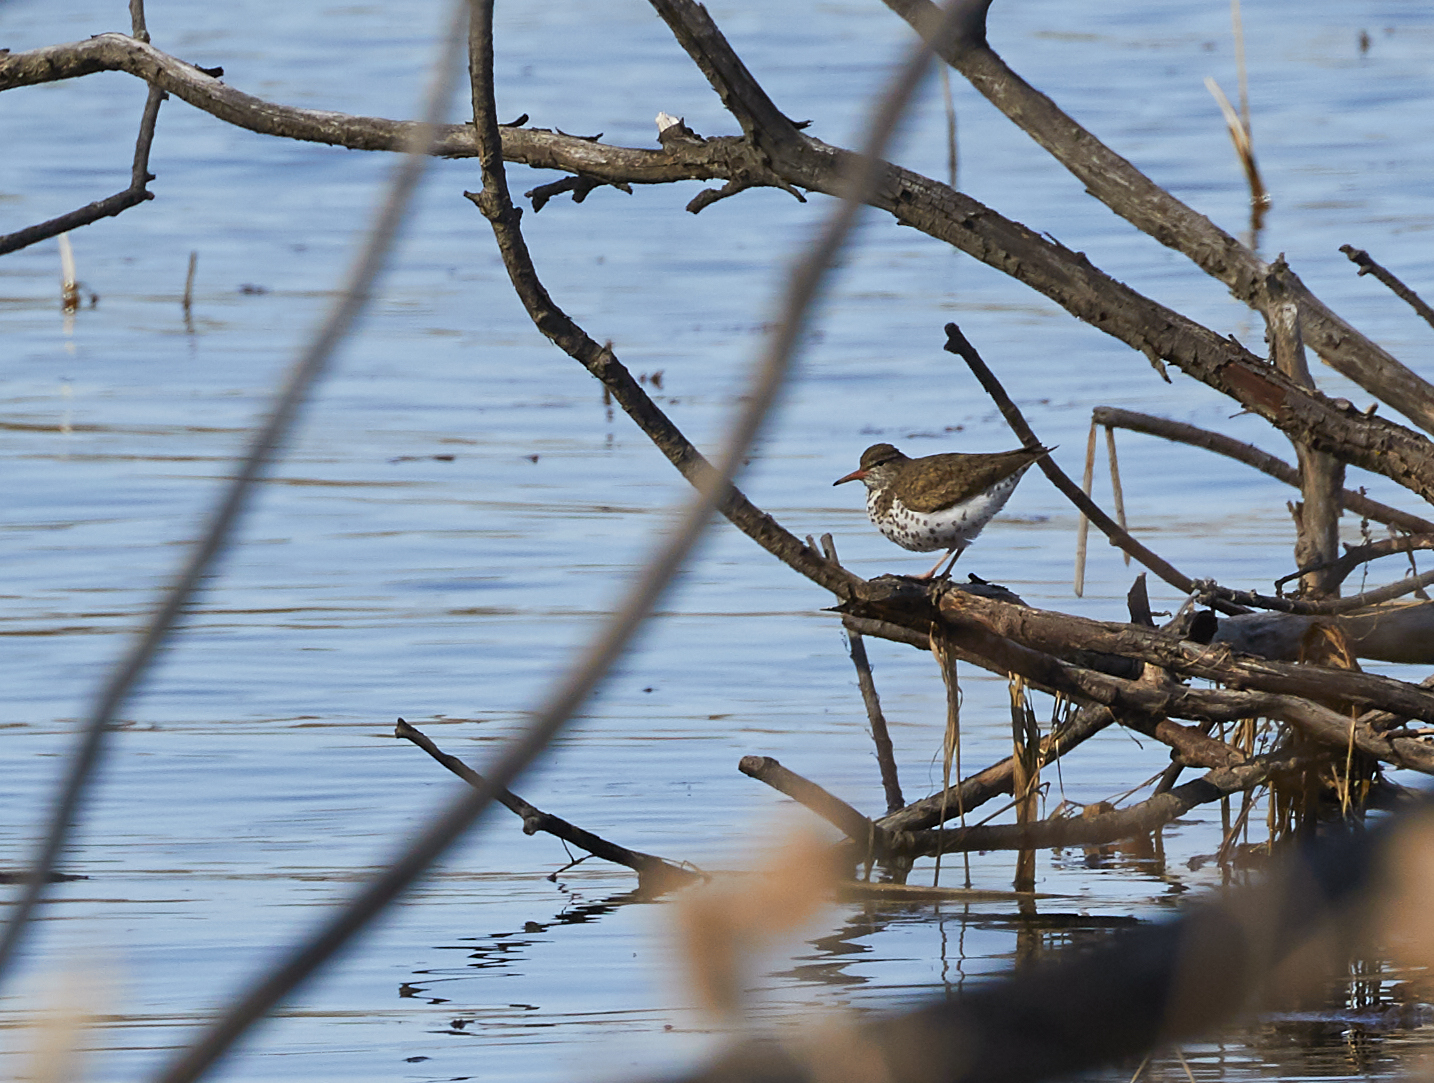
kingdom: Animalia
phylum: Chordata
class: Aves
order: Charadriiformes
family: Scolopacidae
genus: Actitis
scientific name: Actitis macularius
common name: Spotted sandpiper
